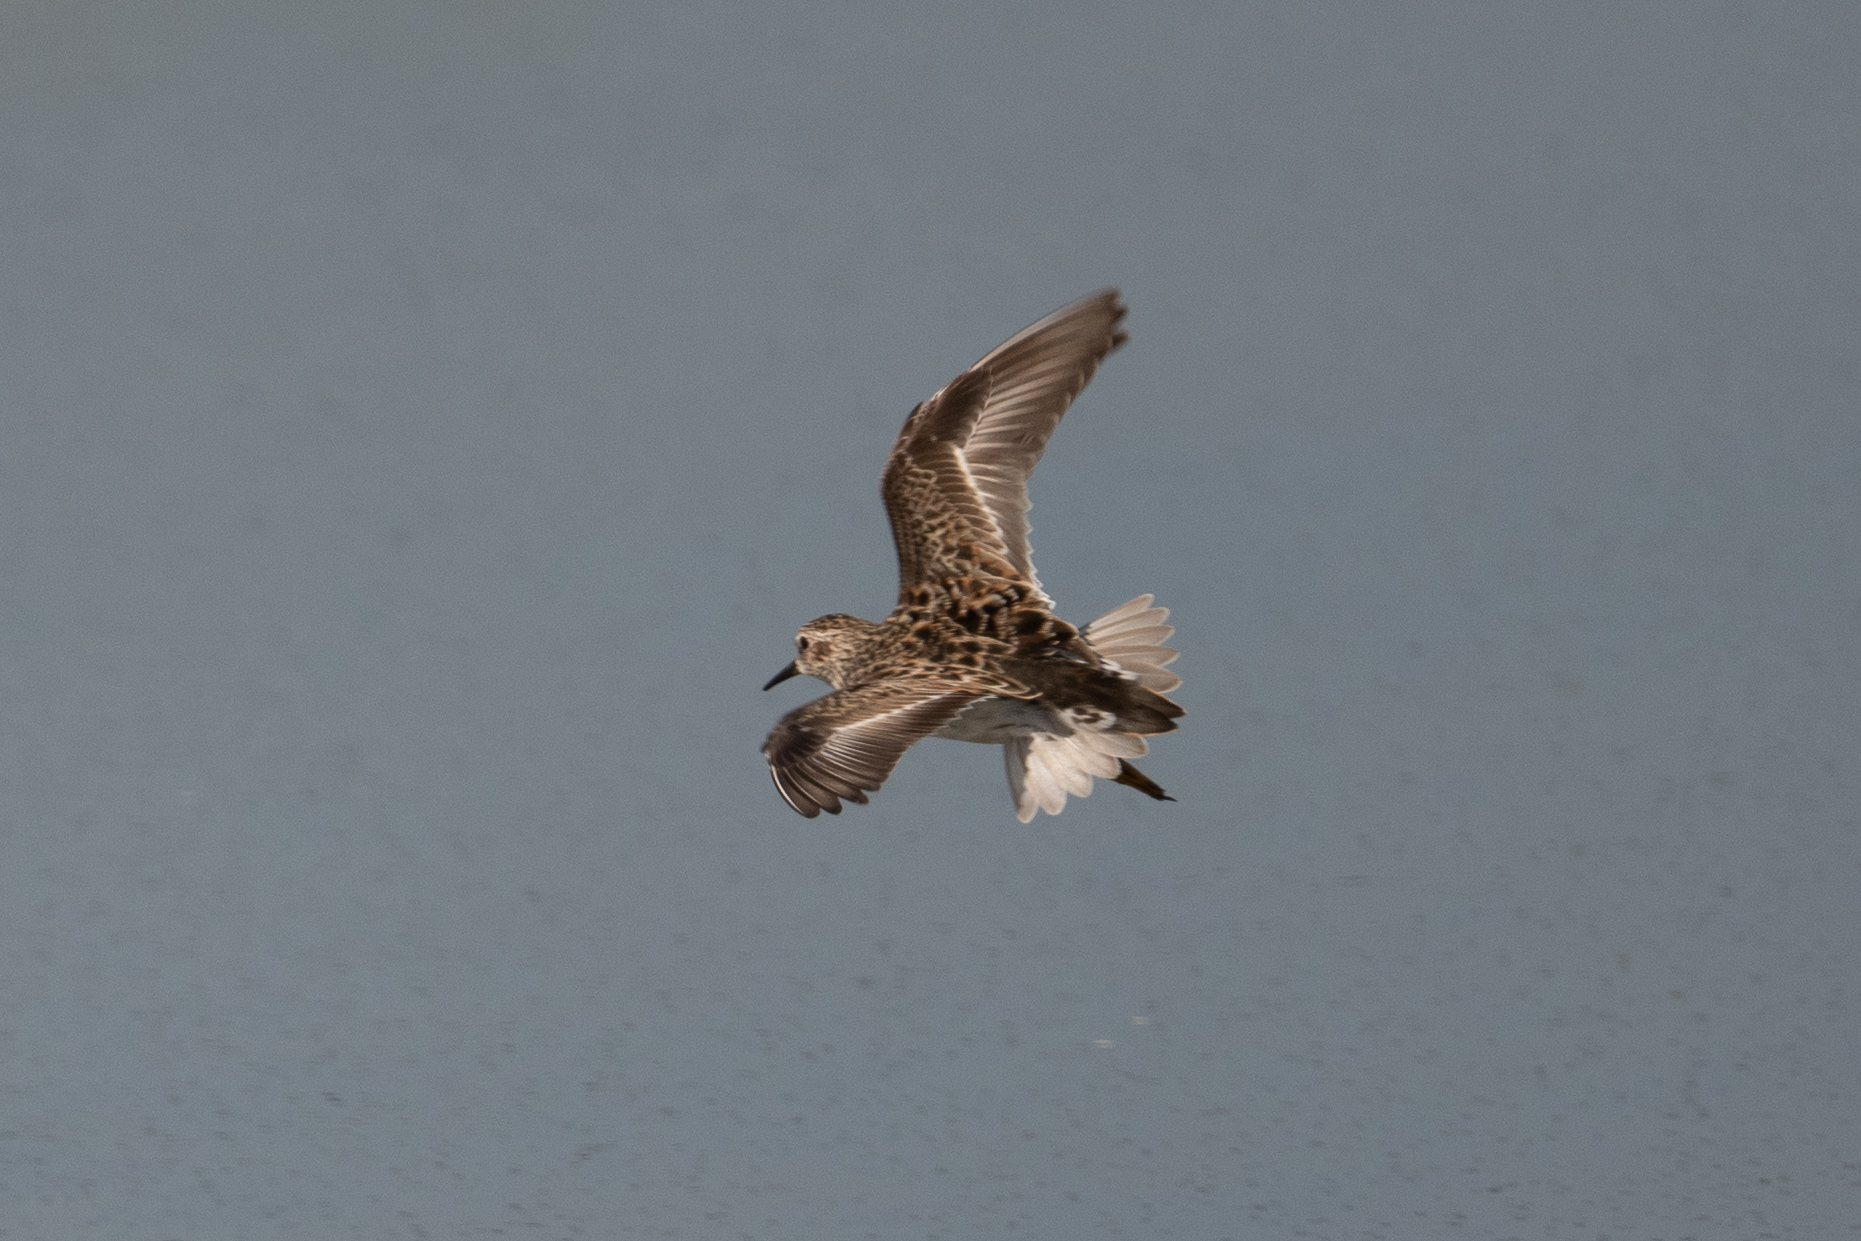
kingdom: Animalia
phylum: Chordata
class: Aves
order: Charadriiformes
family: Scolopacidae
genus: Calidris
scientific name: Calidris minutilla
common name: Least sandpiper
